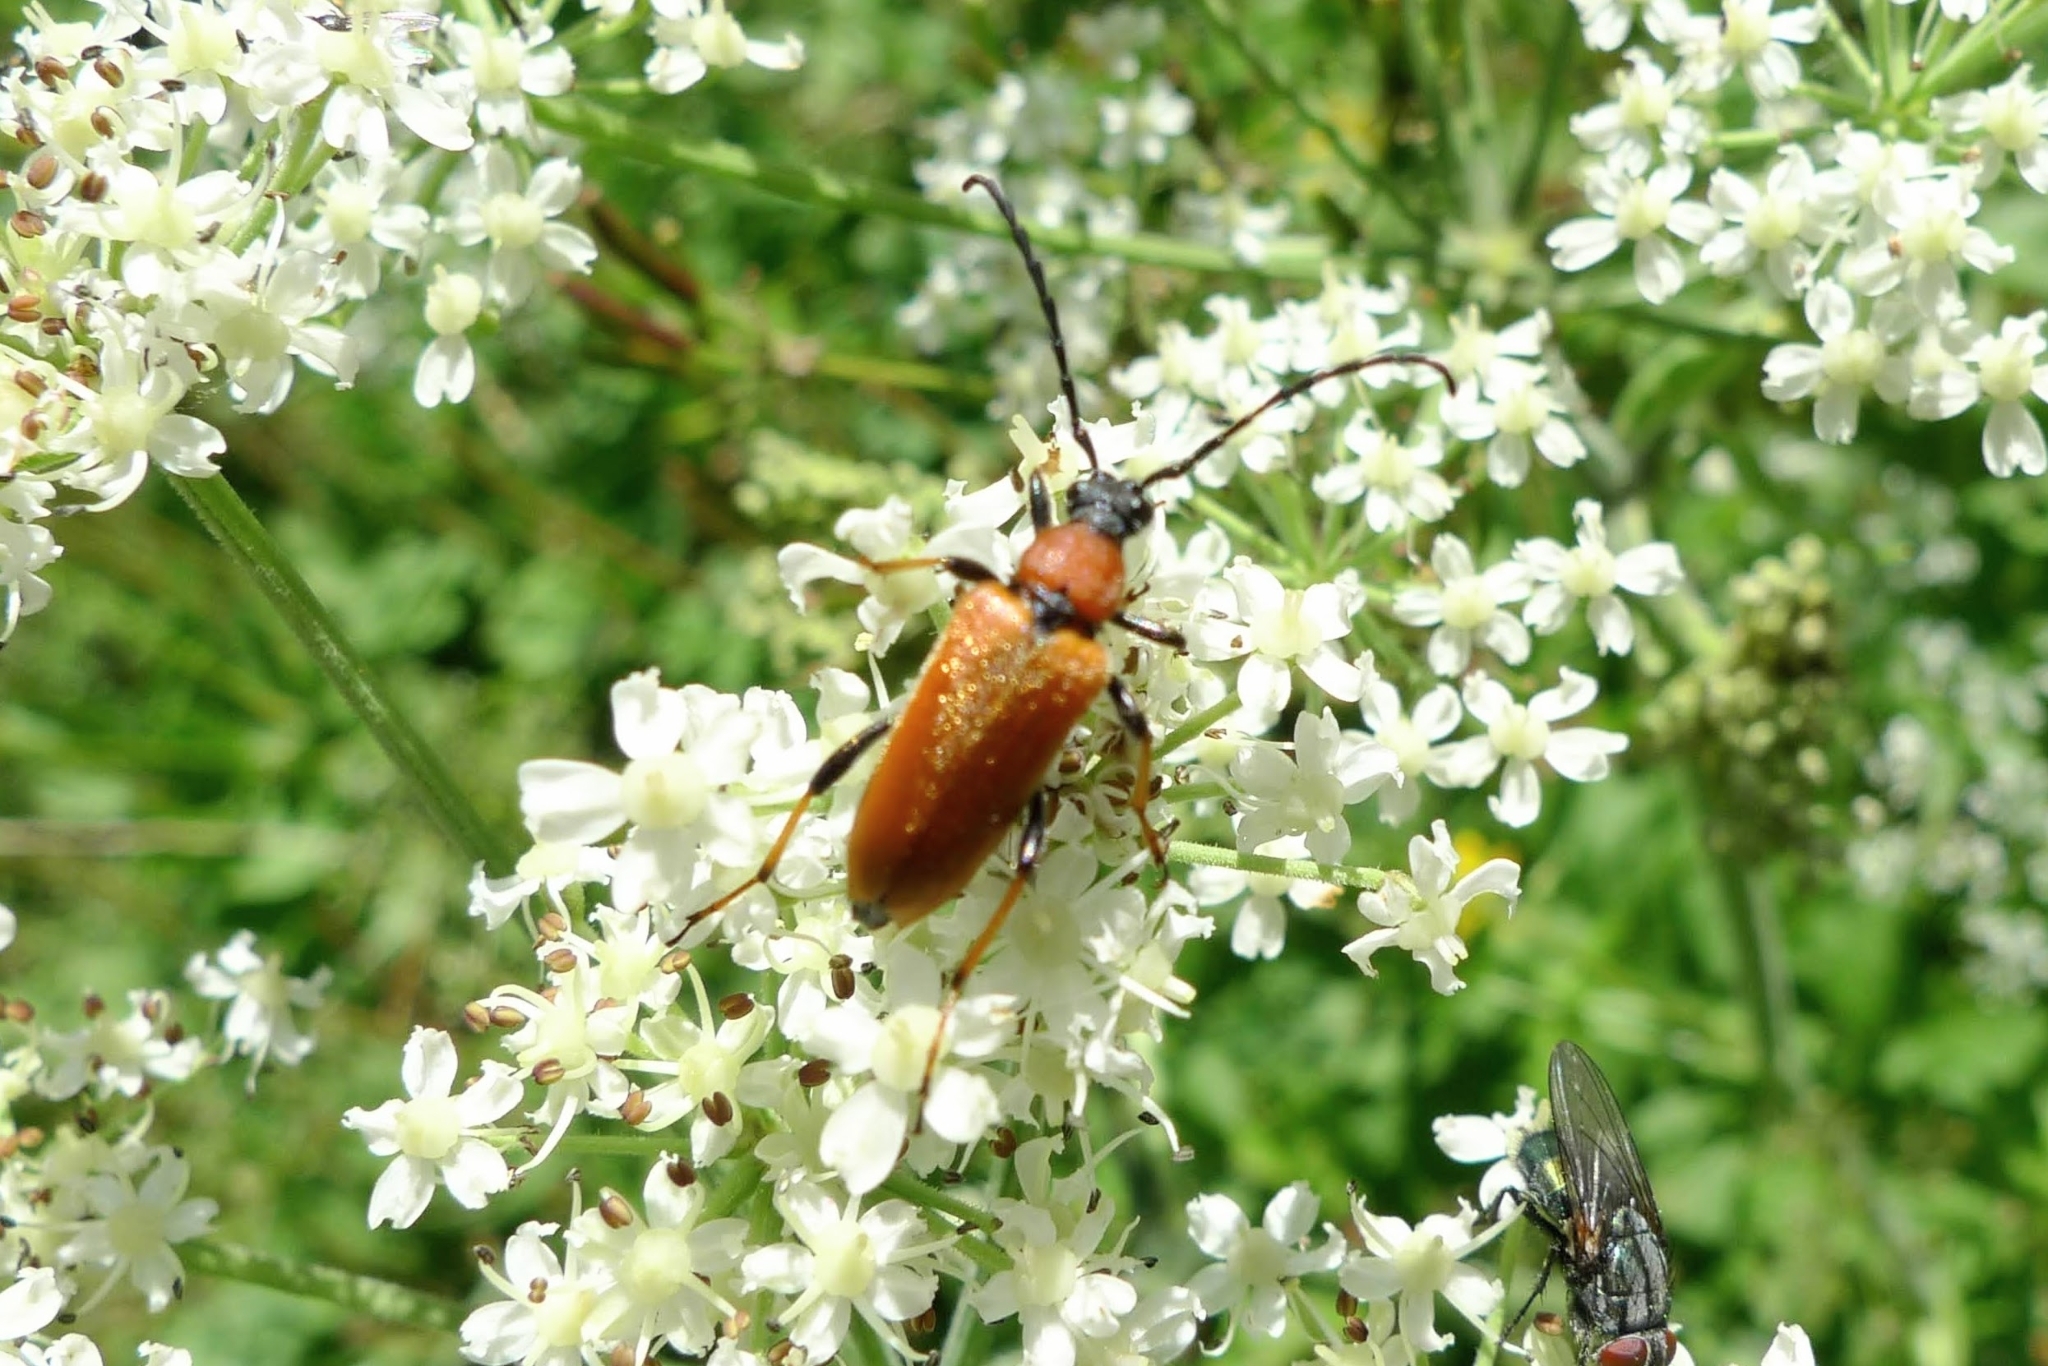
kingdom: Animalia
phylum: Arthropoda
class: Insecta
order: Coleoptera
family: Cerambycidae
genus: Stictoleptura
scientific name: Stictoleptura rubra
